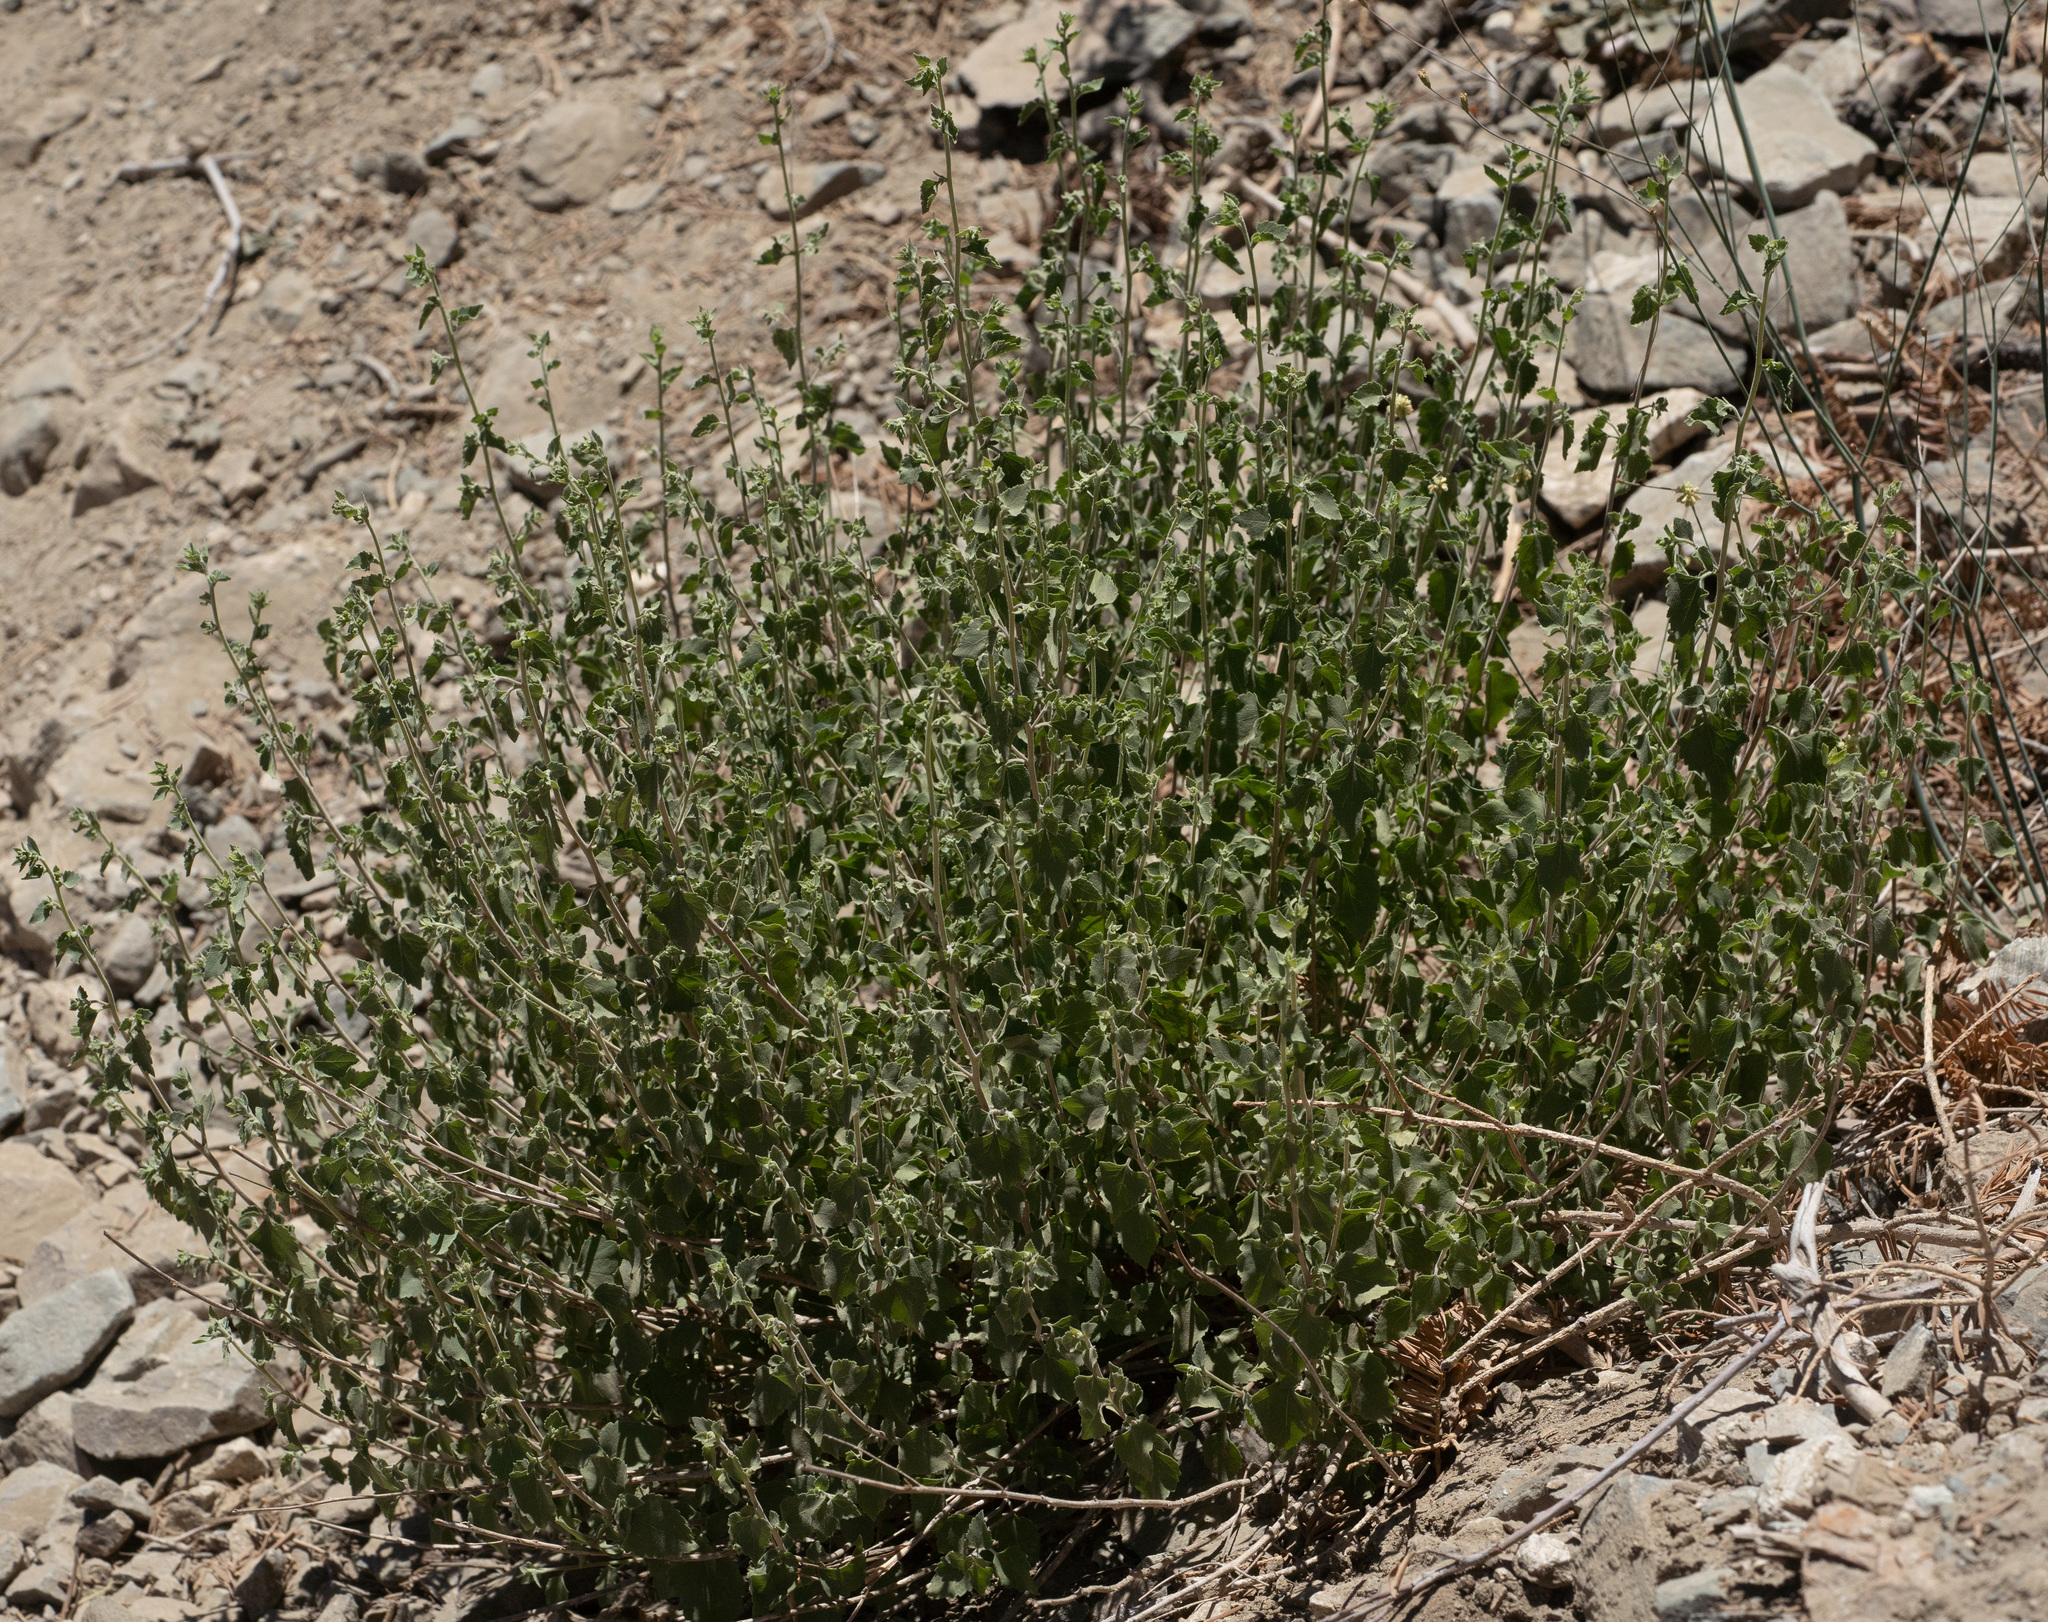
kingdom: Plantae
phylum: Tracheophyta
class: Magnoliopsida
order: Asterales
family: Asteraceae
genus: Brickellia
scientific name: Brickellia californica
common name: California brickellbush
